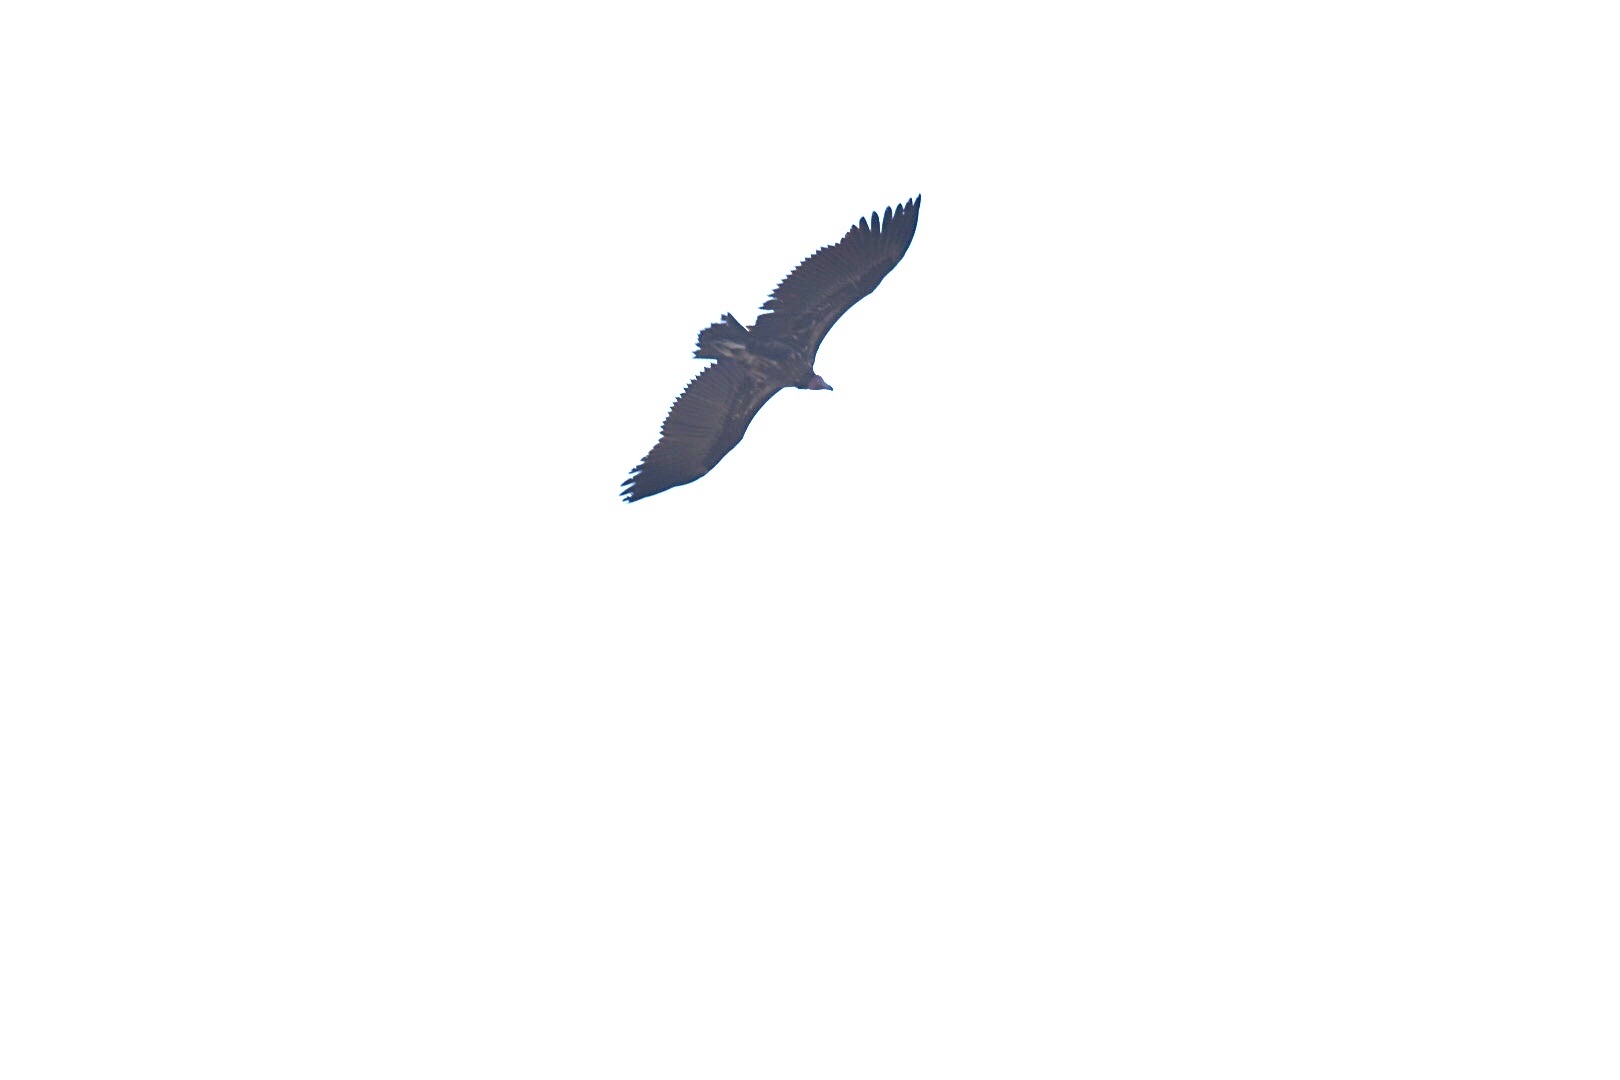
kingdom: Animalia
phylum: Chordata
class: Aves
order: Accipitriformes
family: Accipitridae
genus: Torgos
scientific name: Torgos tracheliotos
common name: Lappet-faced vulture
